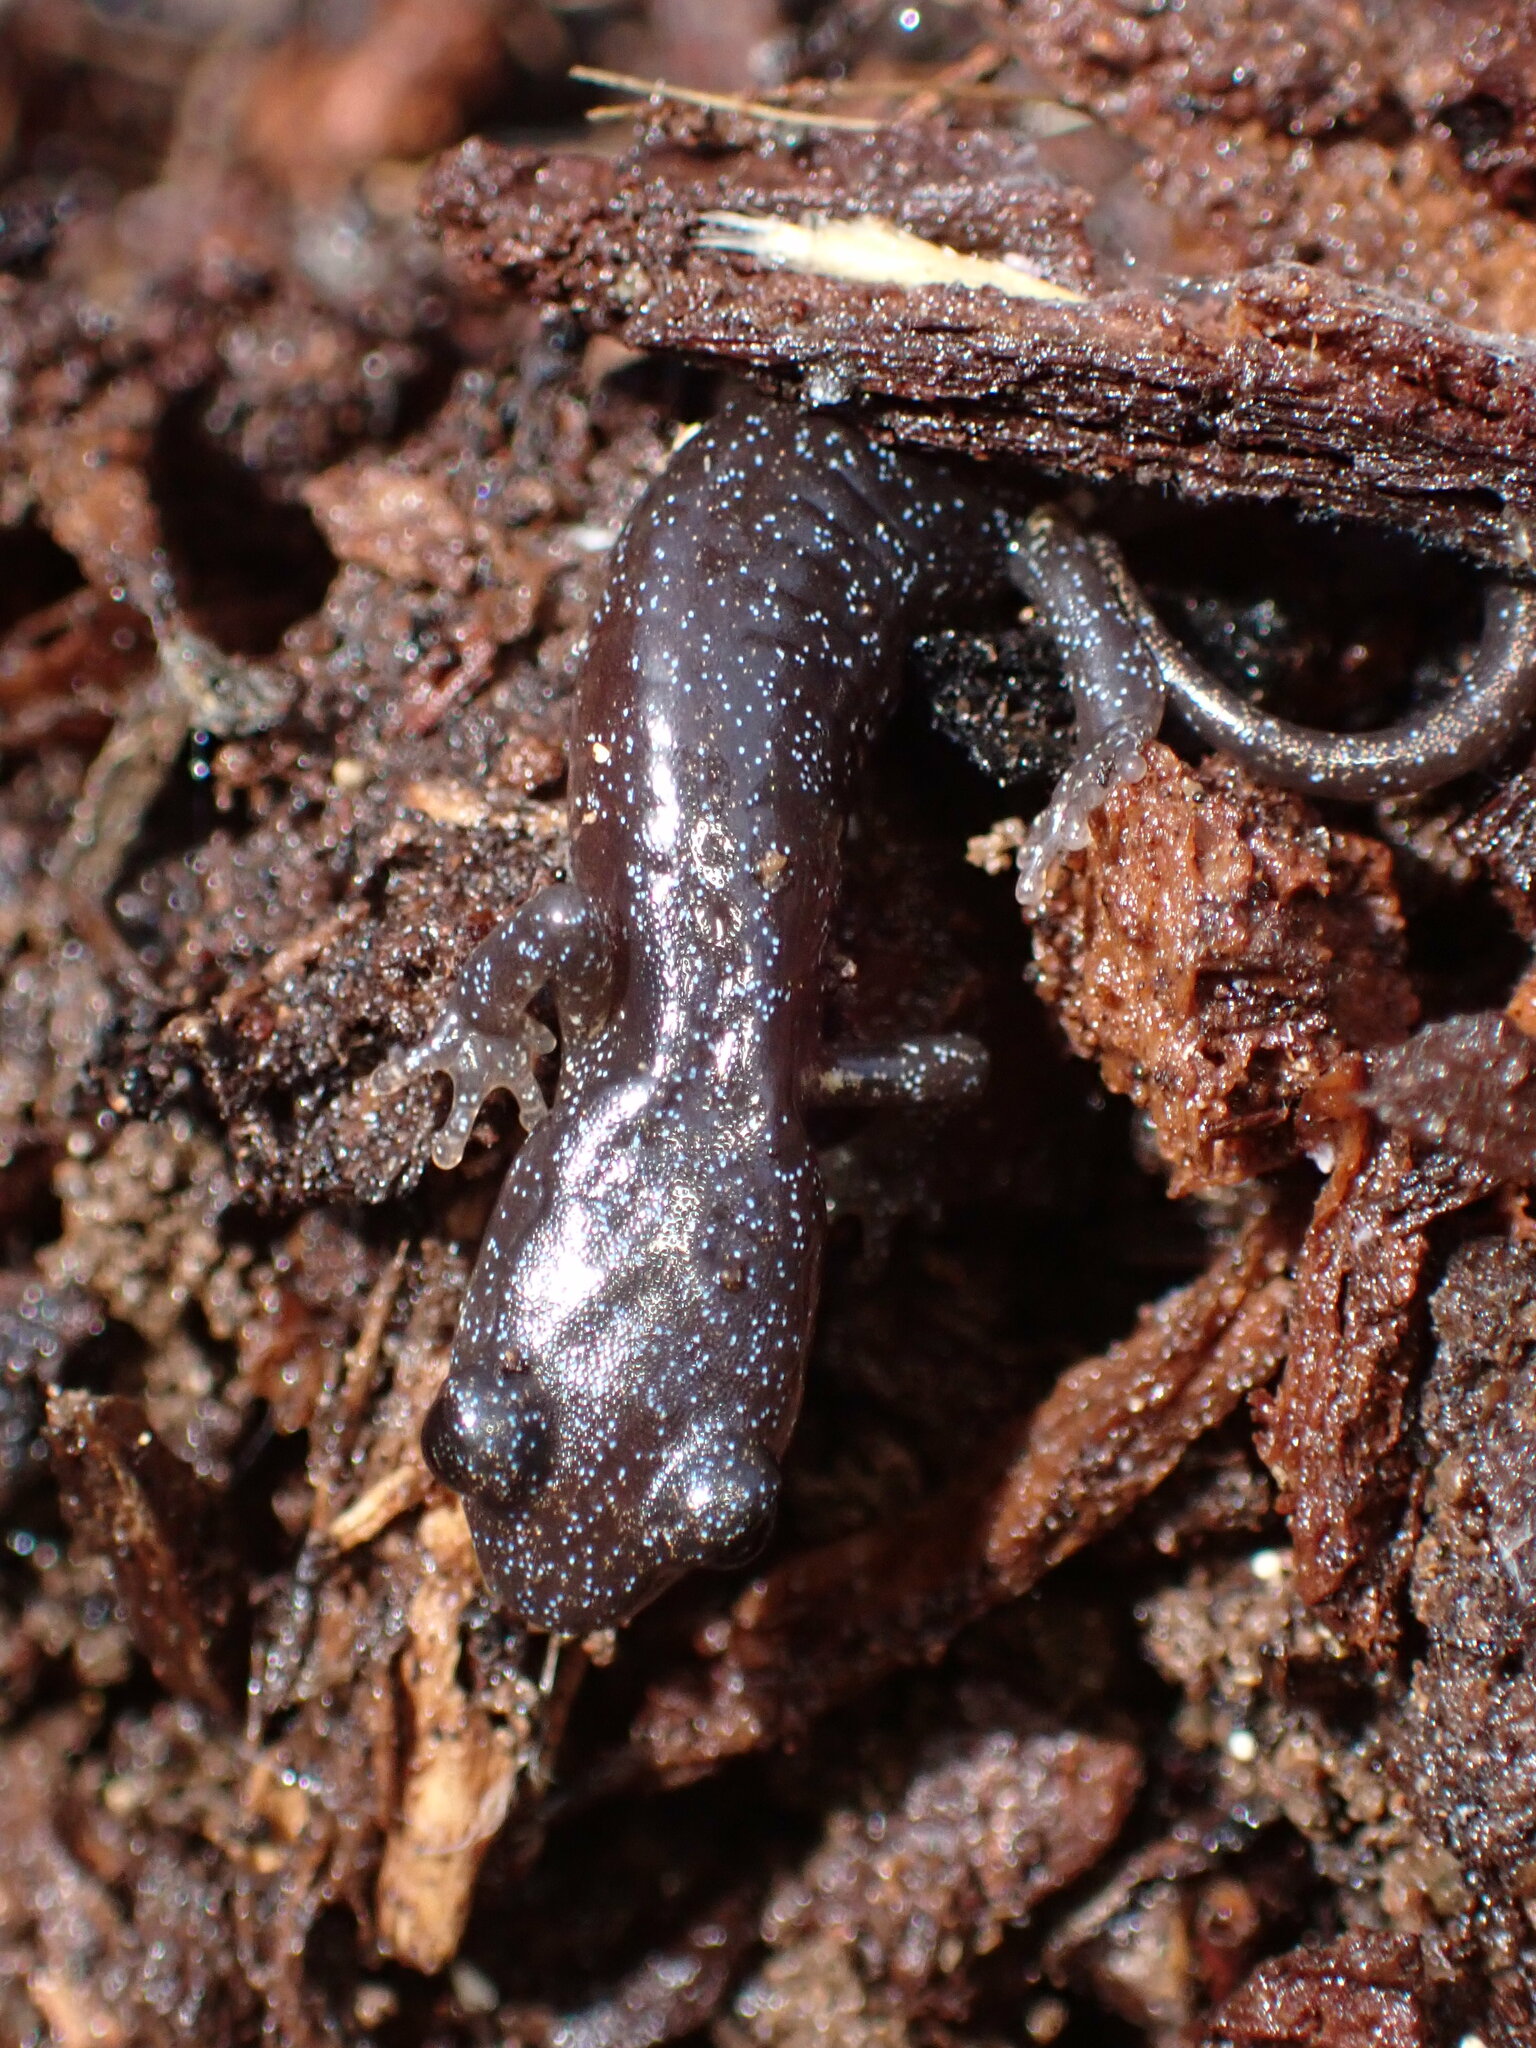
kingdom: Animalia
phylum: Chordata
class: Amphibia
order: Caudata
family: Plethodontidae
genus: Aneides
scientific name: Aneides lugubris
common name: Arboreal salamander
